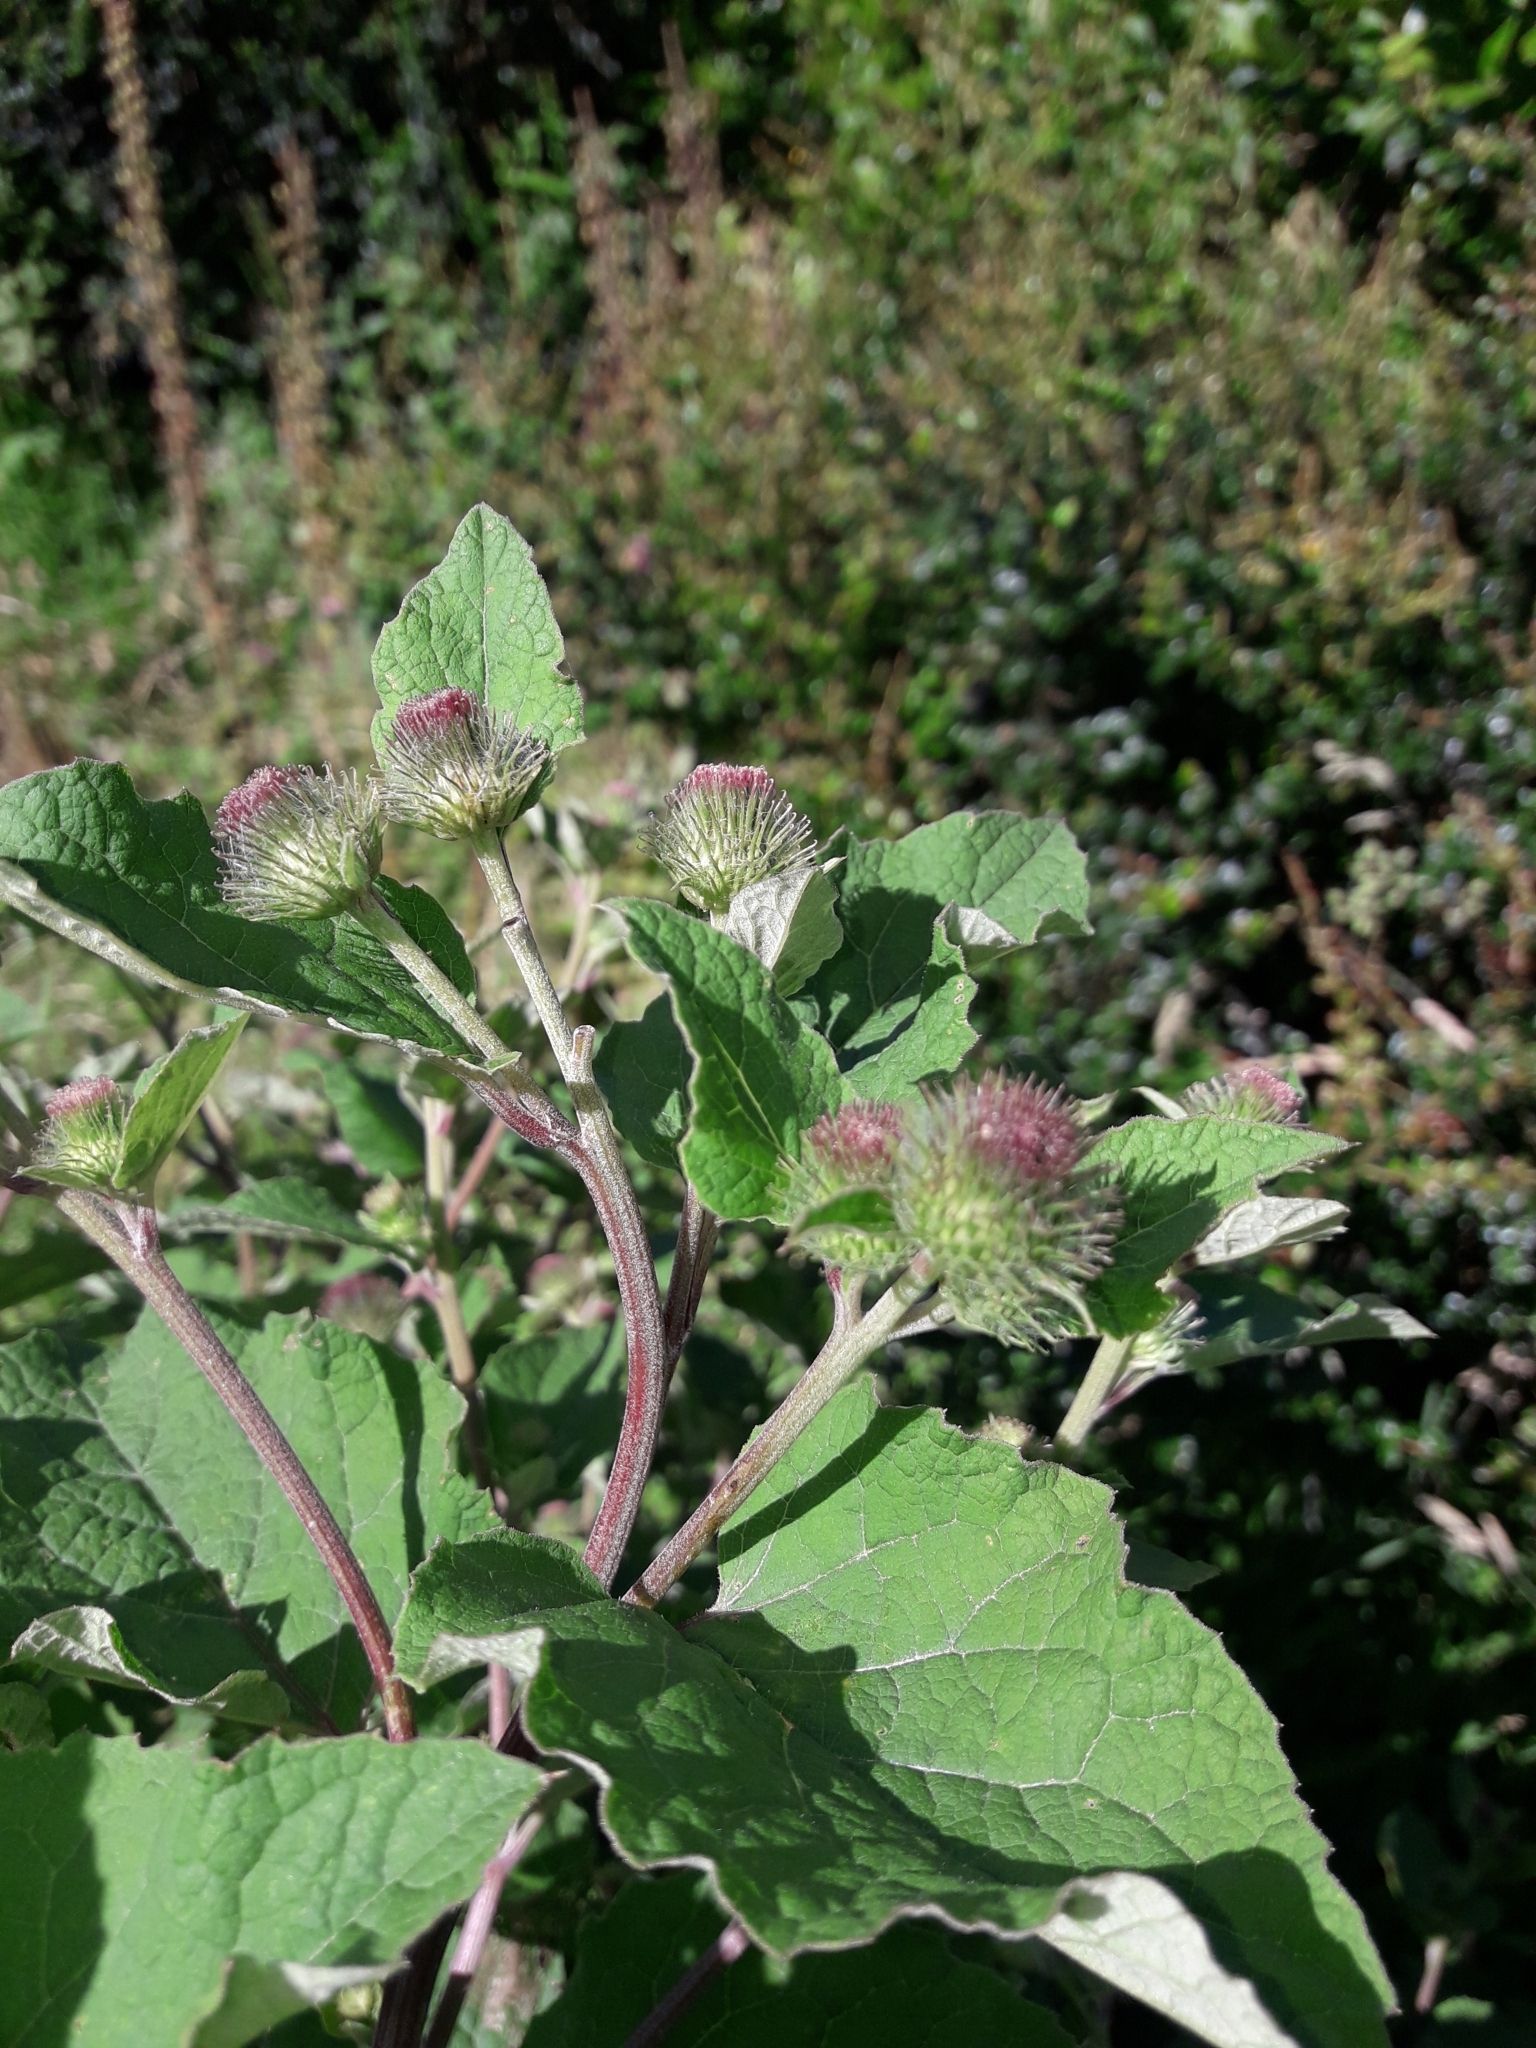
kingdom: Plantae
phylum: Tracheophyta
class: Magnoliopsida
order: Asterales
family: Asteraceae
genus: Arctium
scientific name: Arctium minus
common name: Lesser burdock
